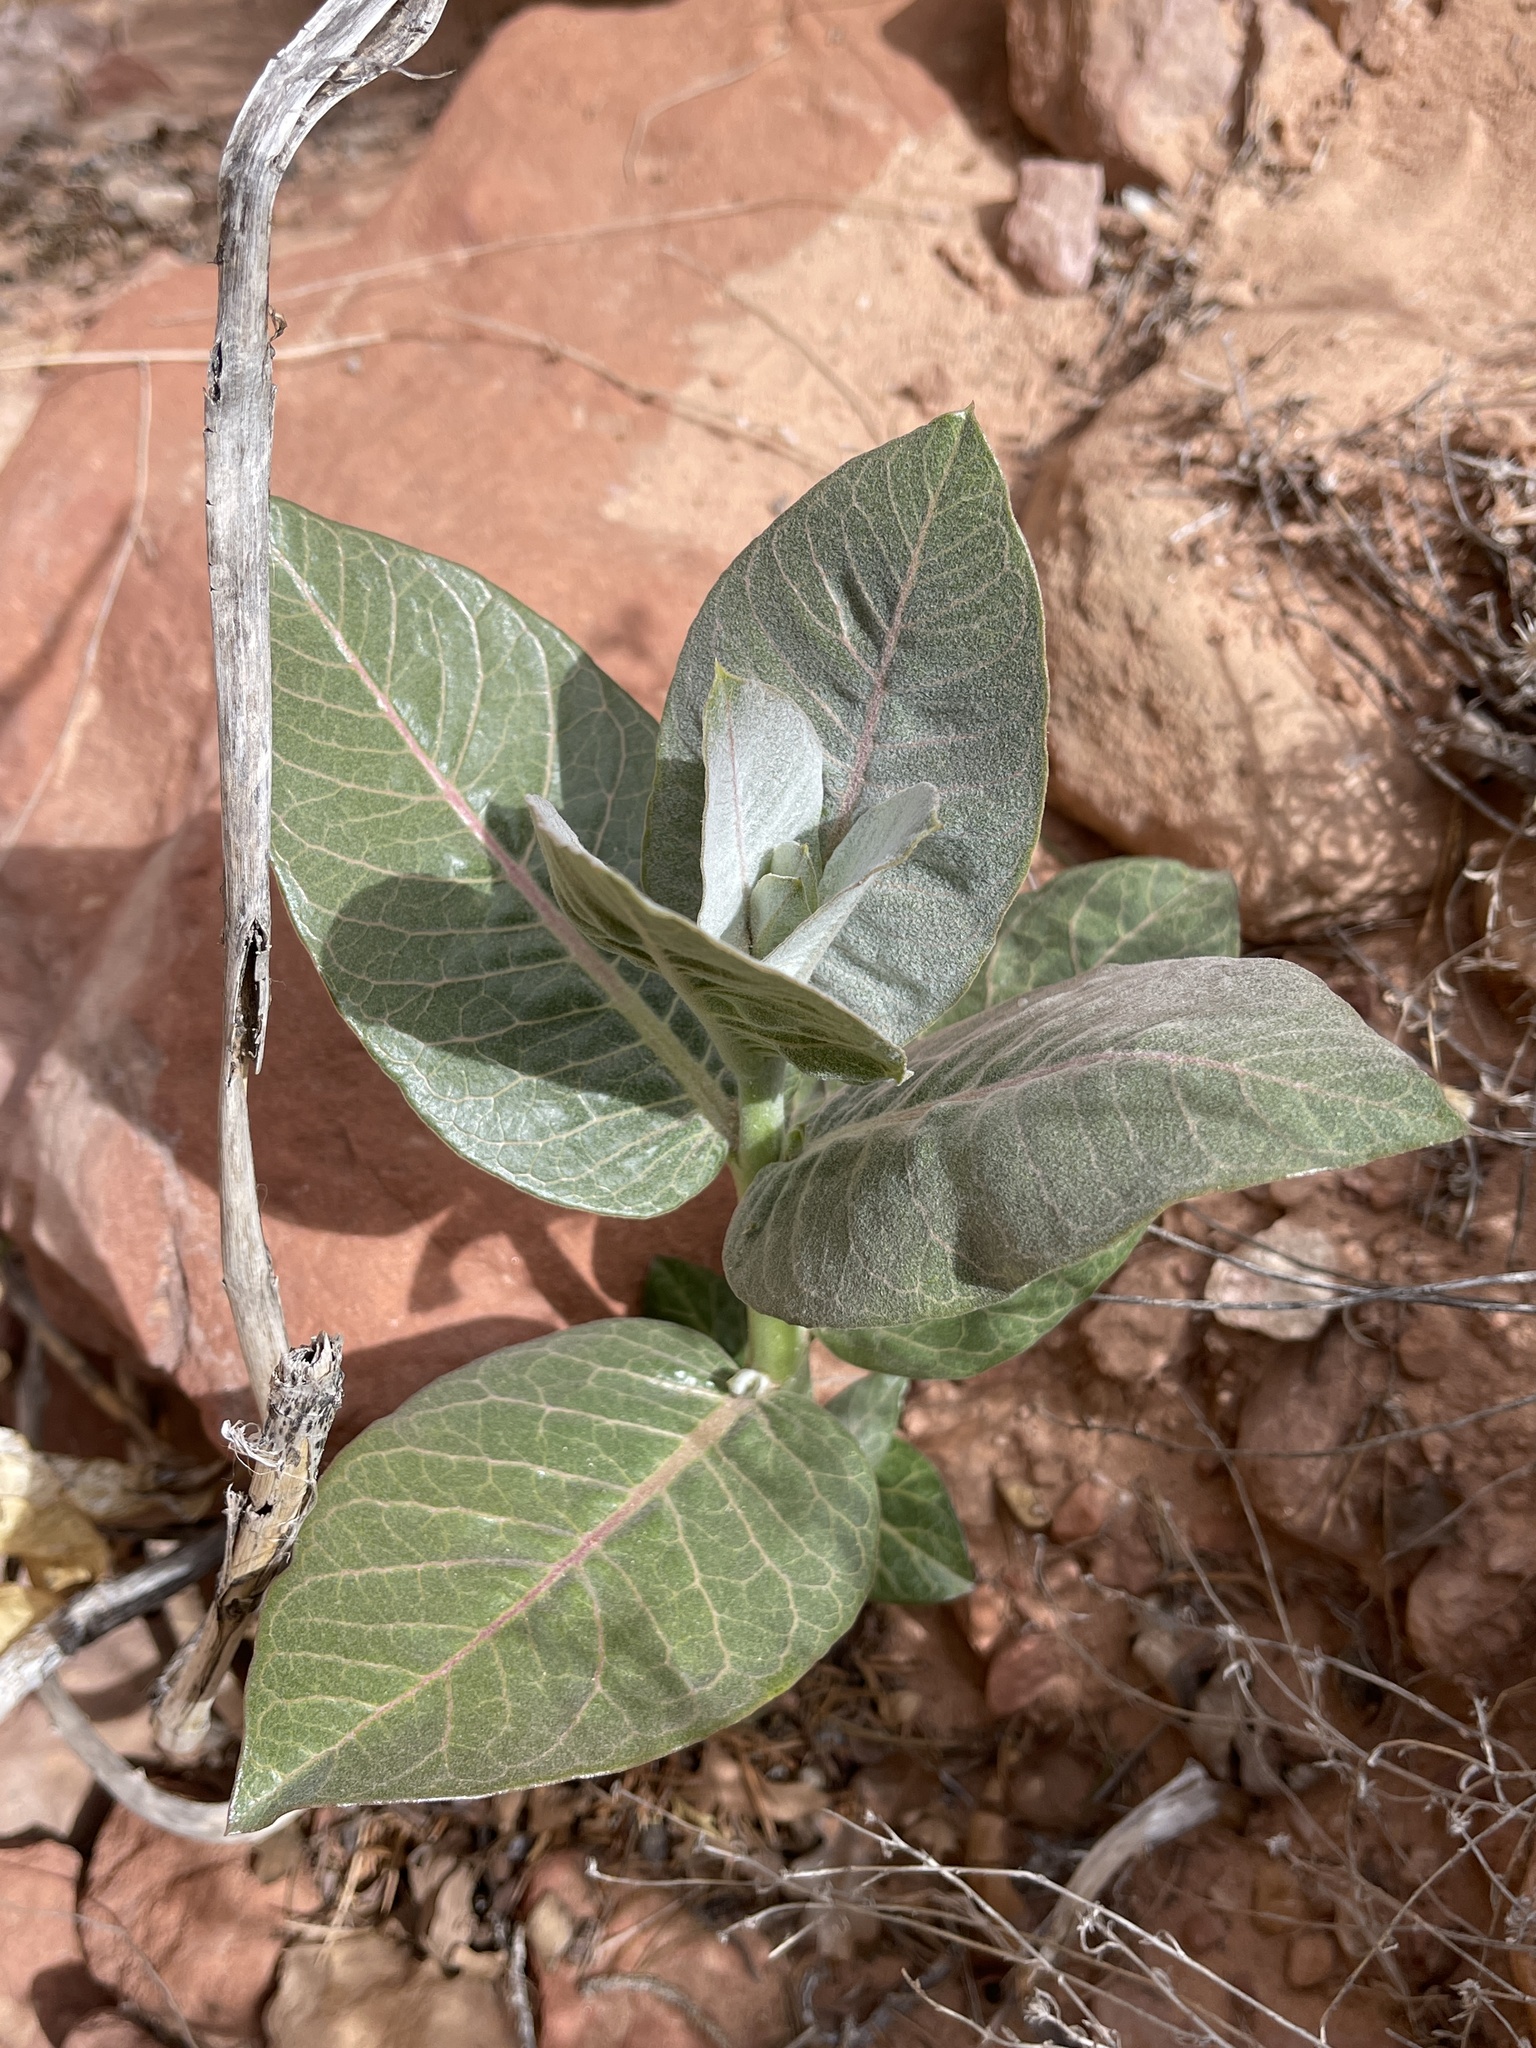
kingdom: Plantae
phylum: Tracheophyta
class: Magnoliopsida
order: Gentianales
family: Apocynaceae
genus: Asclepias
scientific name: Asclepias latifolia
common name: Broadleaf milkweed
